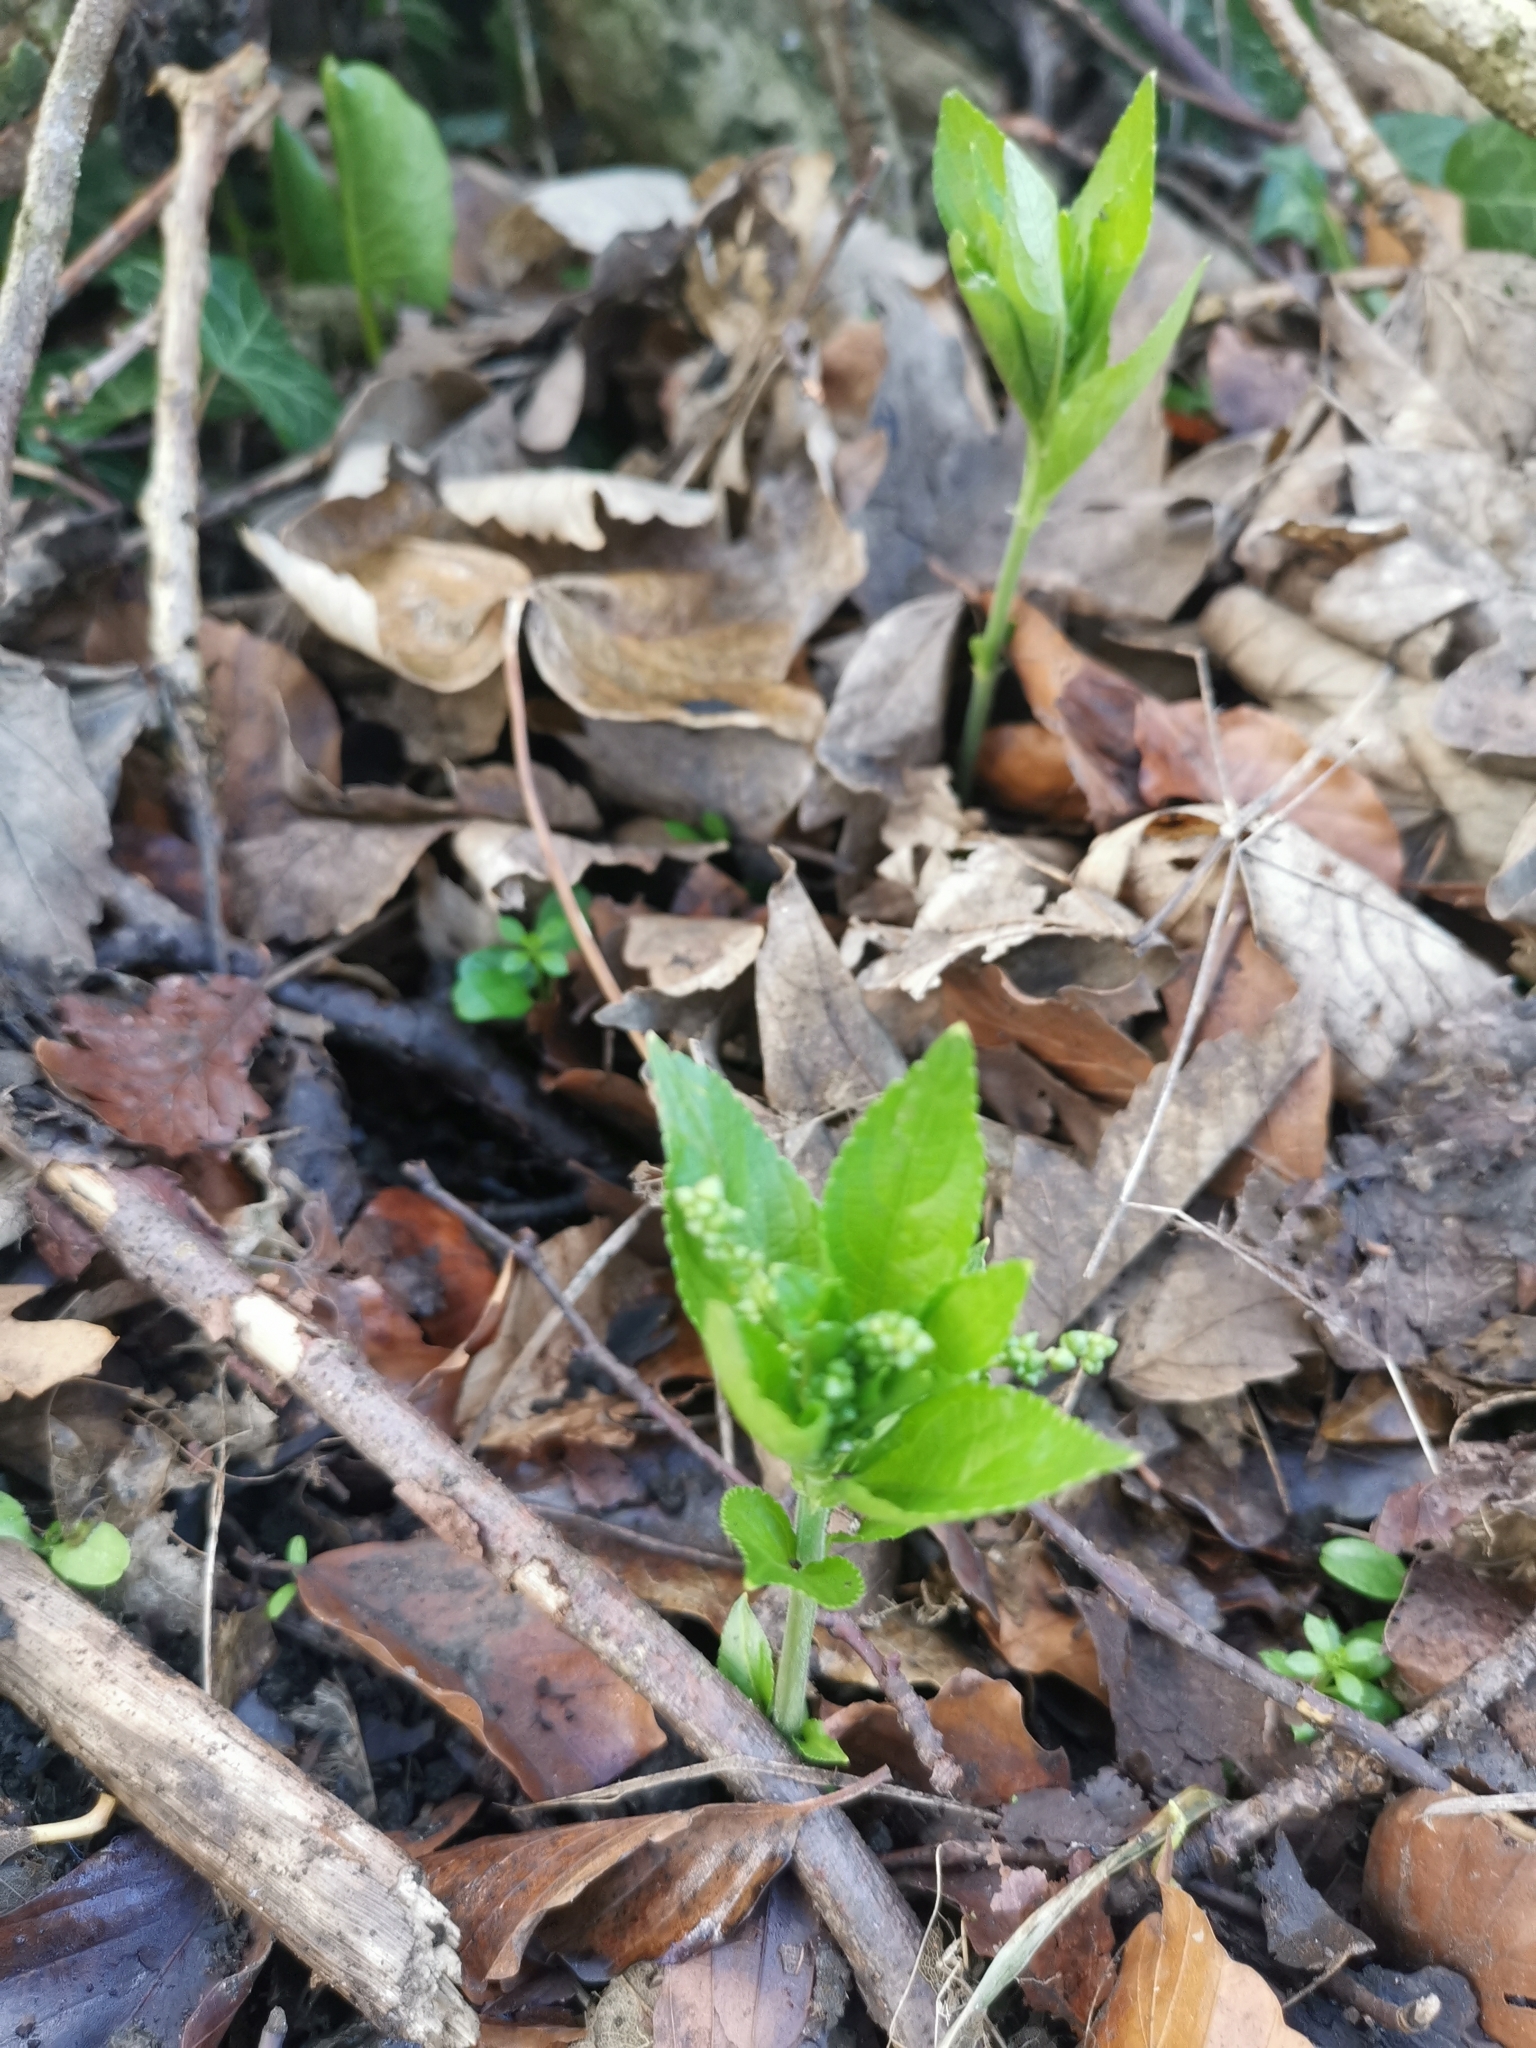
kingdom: Plantae
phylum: Tracheophyta
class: Magnoliopsida
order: Malpighiales
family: Euphorbiaceae
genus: Mercurialis
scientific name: Mercurialis perennis
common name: Dog mercury
